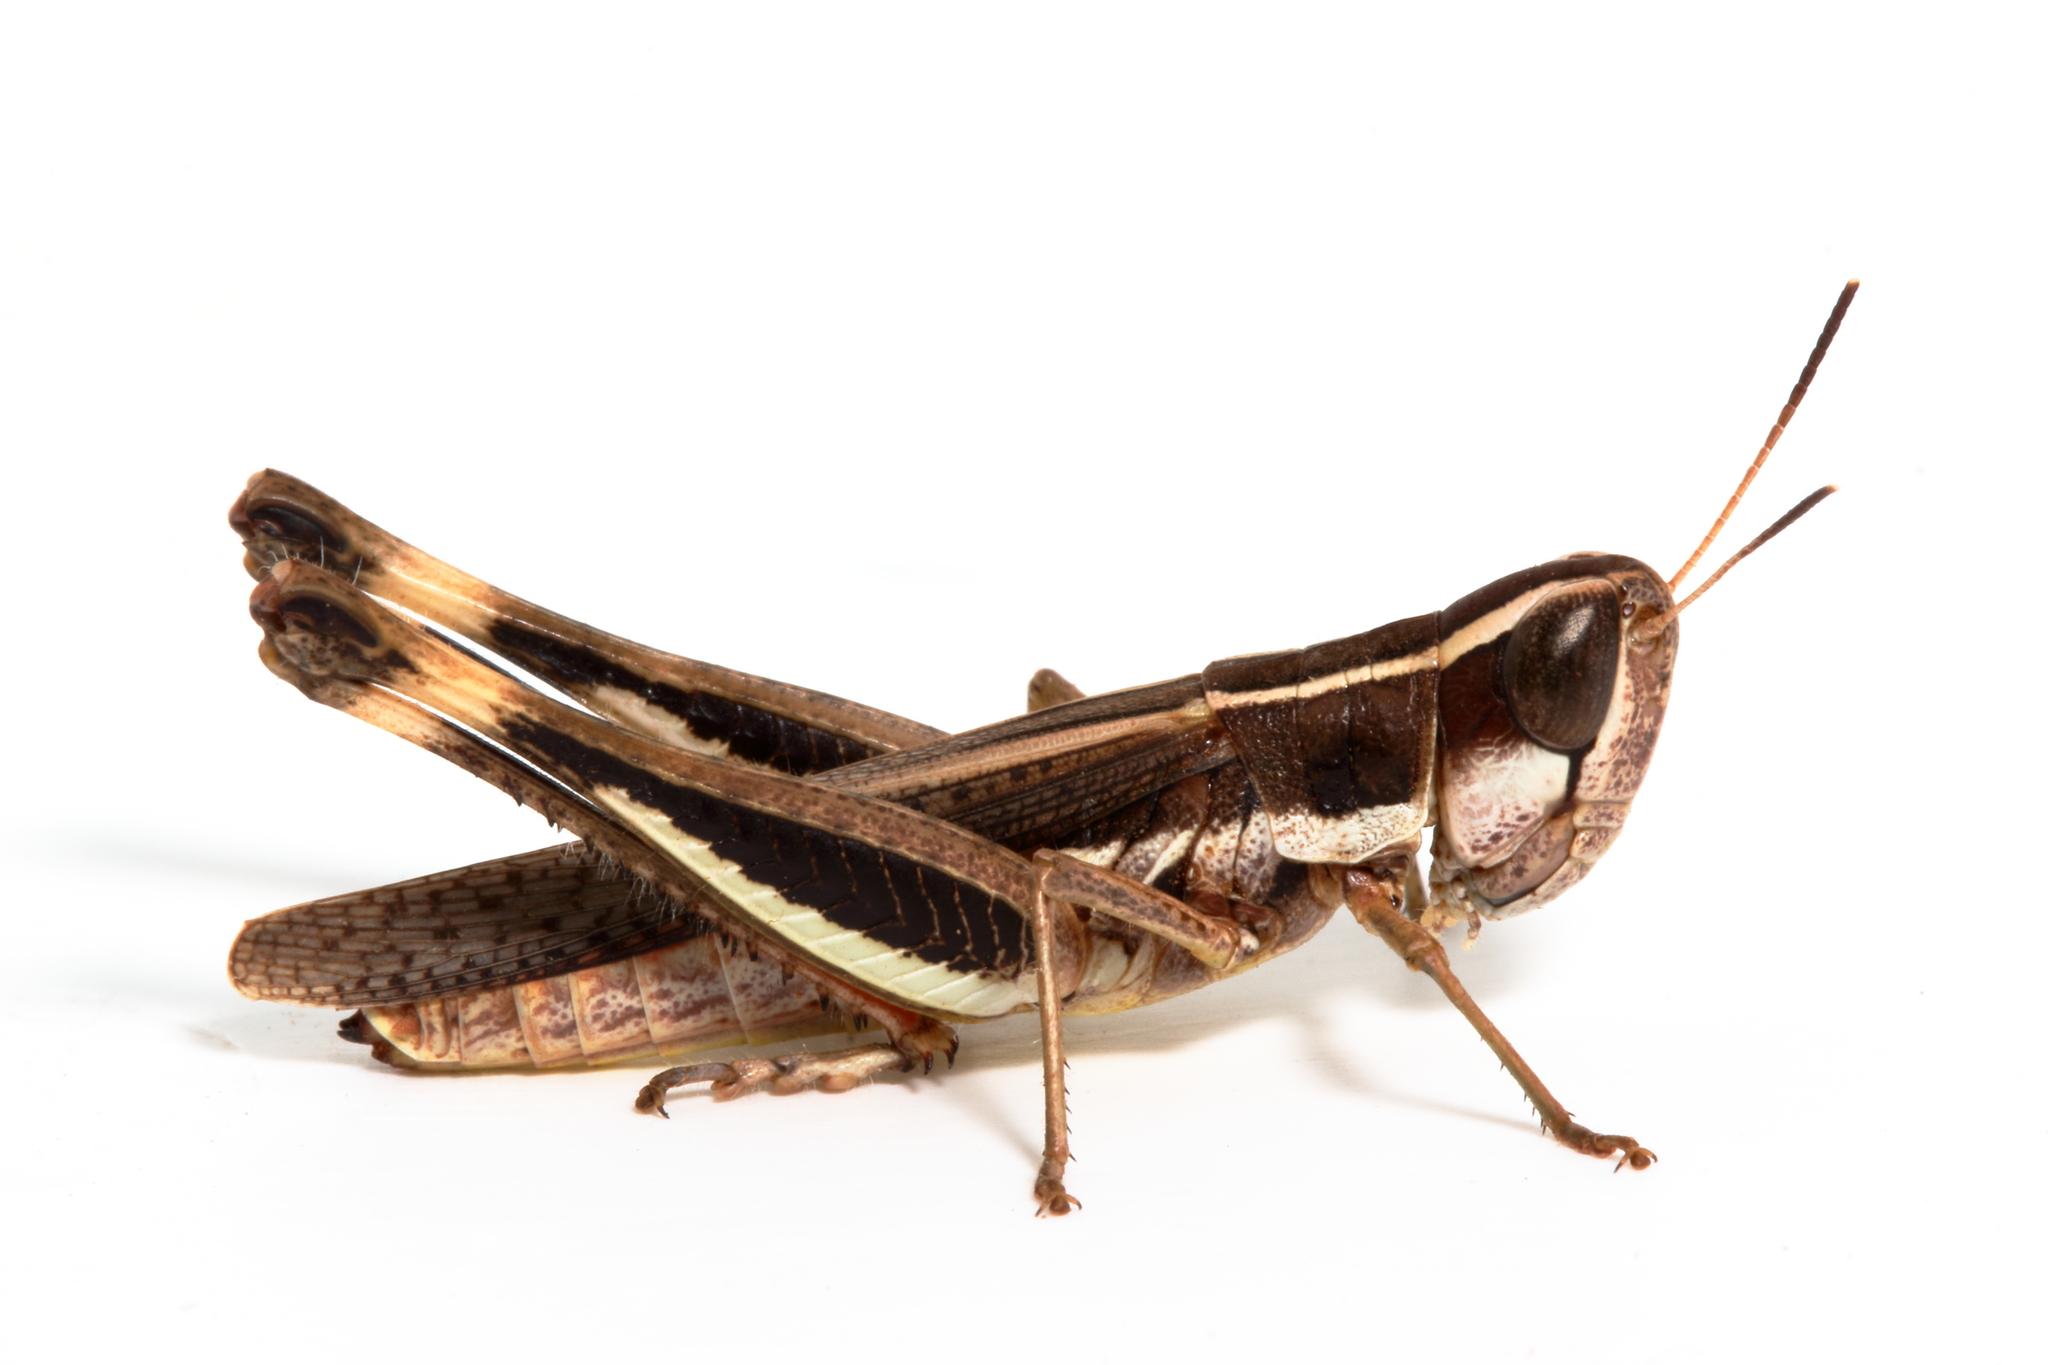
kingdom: Animalia
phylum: Arthropoda
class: Insecta
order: Orthoptera
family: Acrididae
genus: Macrotona
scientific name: Macrotona securiformis
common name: Inland macrotona
